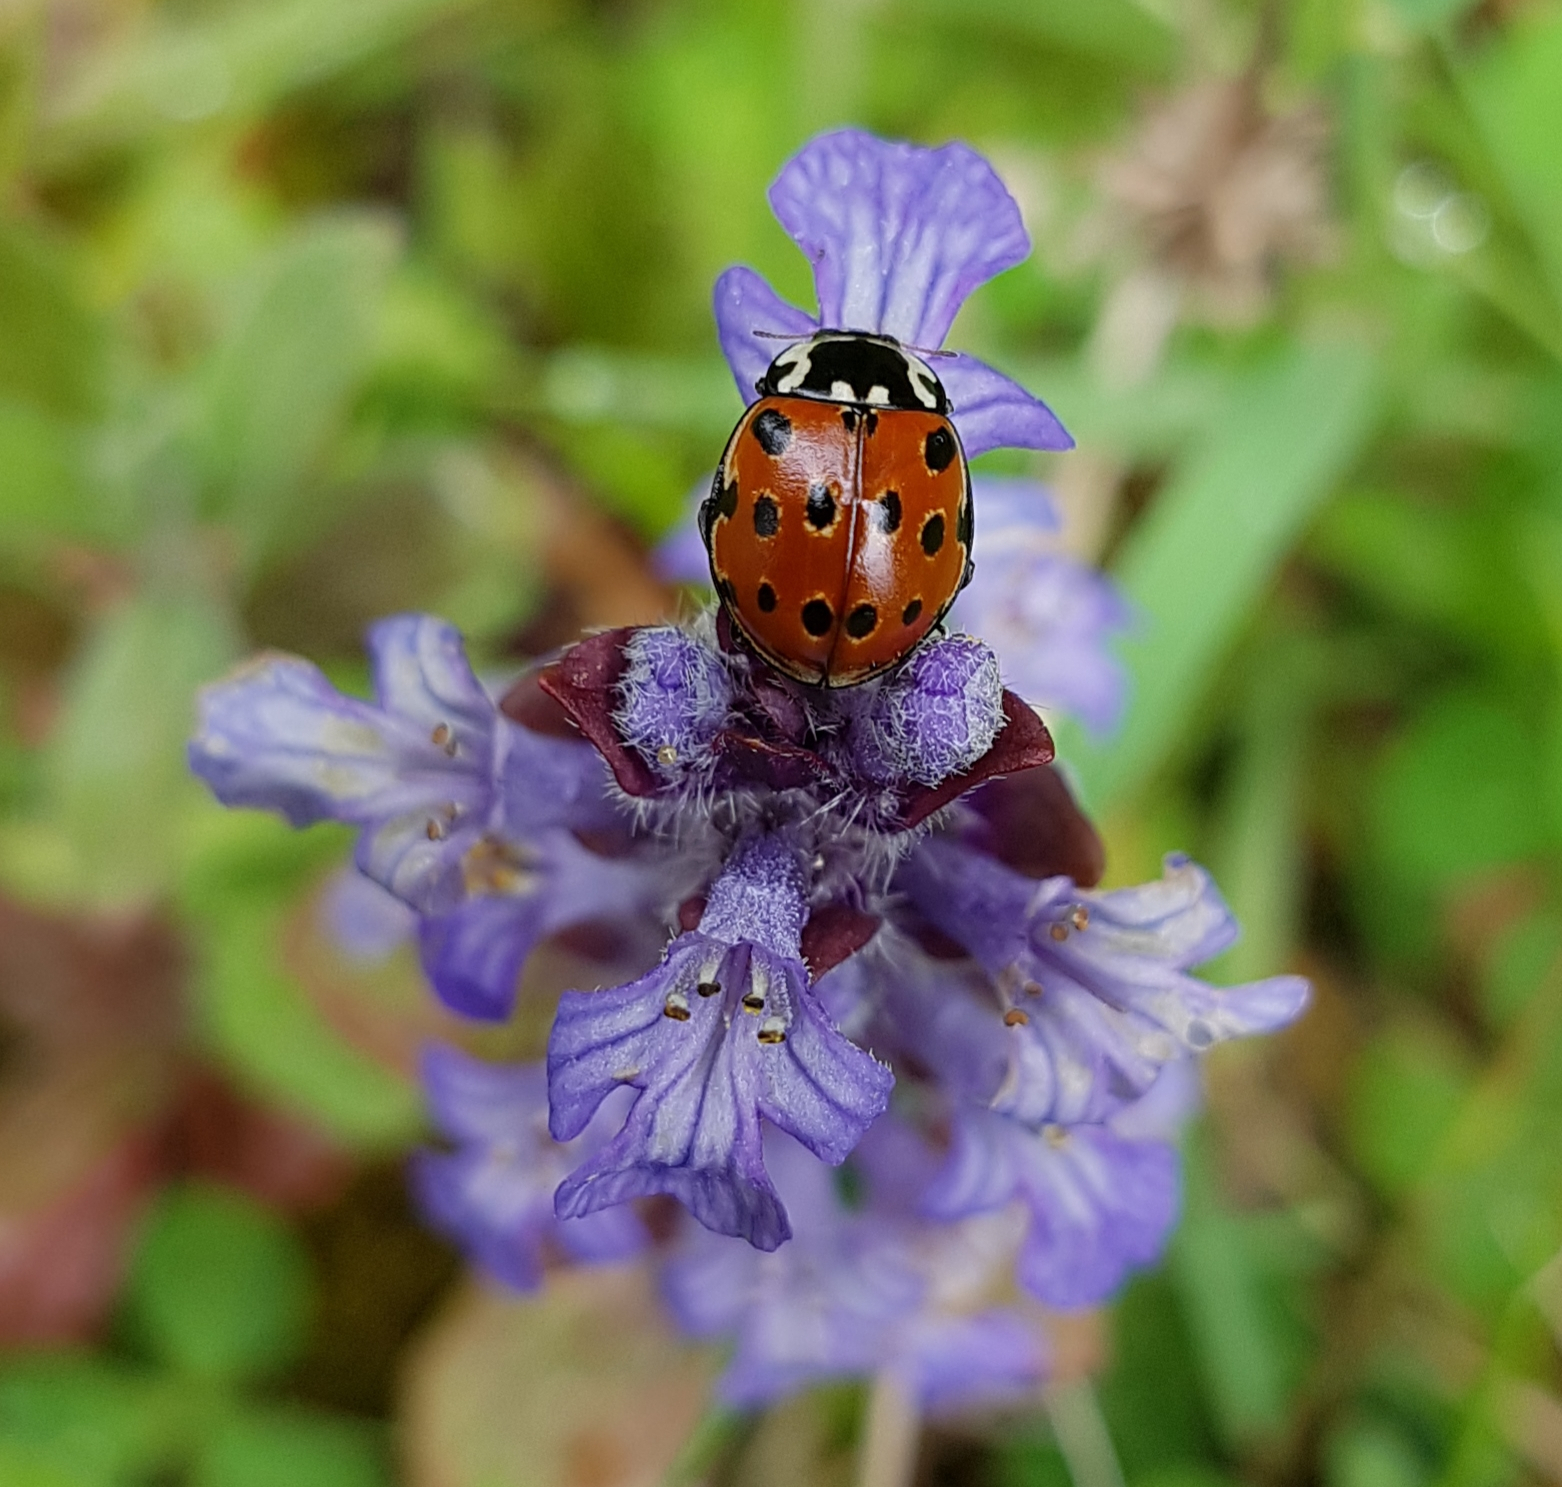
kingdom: Animalia
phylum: Arthropoda
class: Insecta
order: Coleoptera
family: Coccinellidae
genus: Anatis
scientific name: Anatis ocellata
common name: Eyed ladybird
